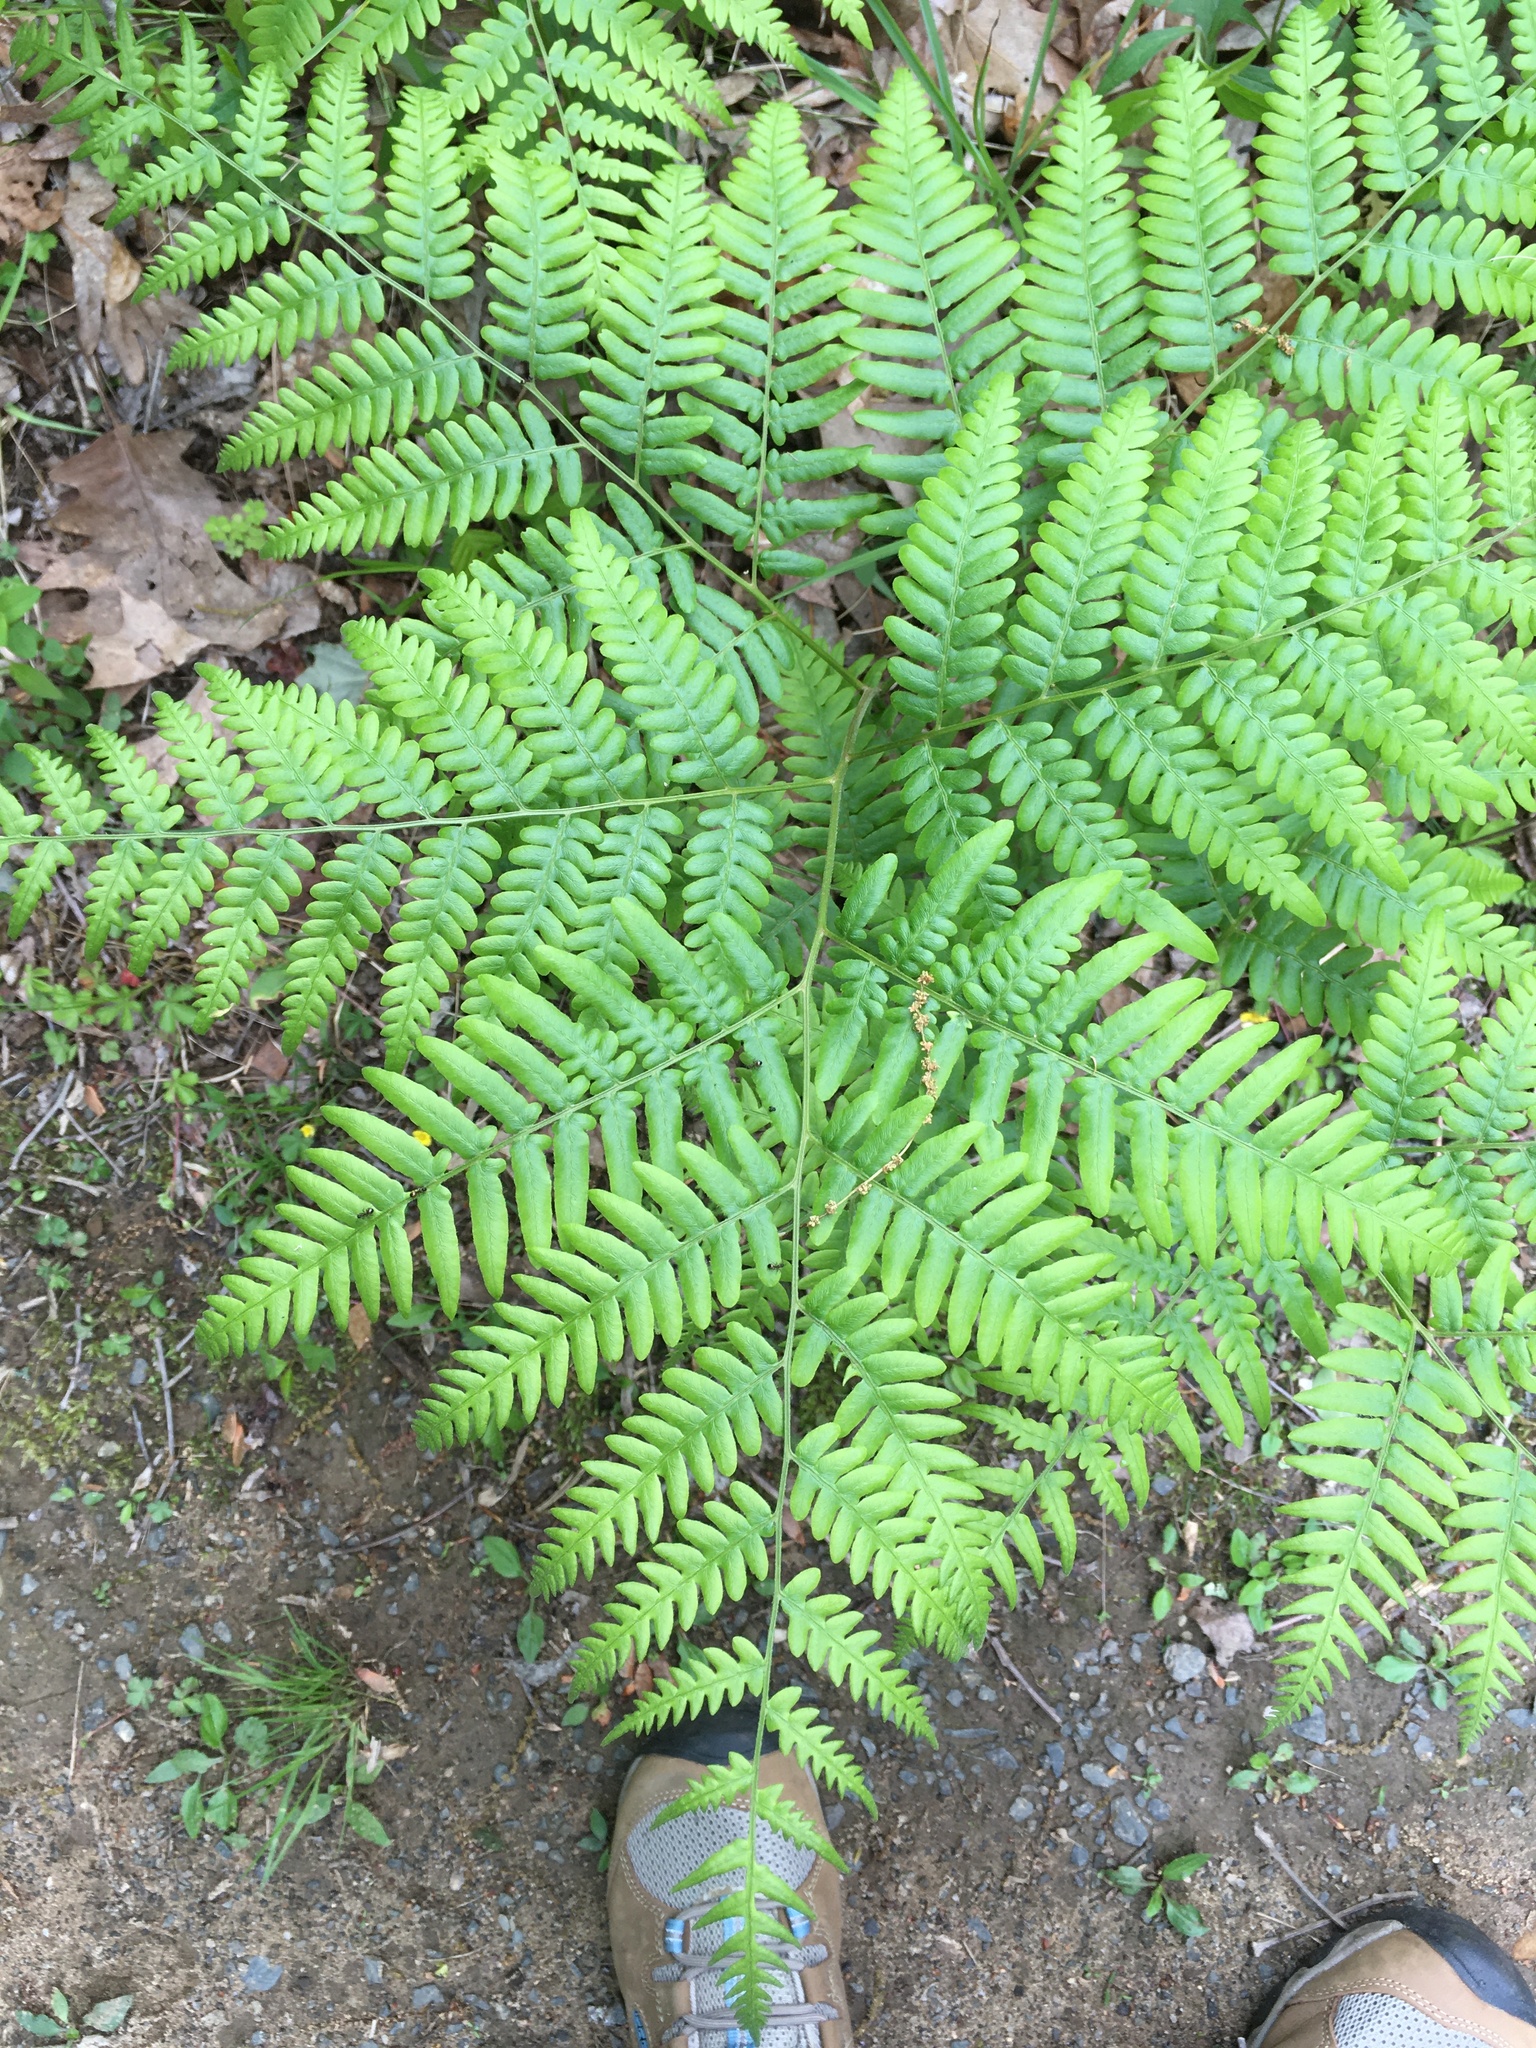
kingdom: Plantae
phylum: Tracheophyta
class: Polypodiopsida
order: Polypodiales
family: Dennstaedtiaceae
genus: Pteridium
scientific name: Pteridium aquilinum
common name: Bracken
